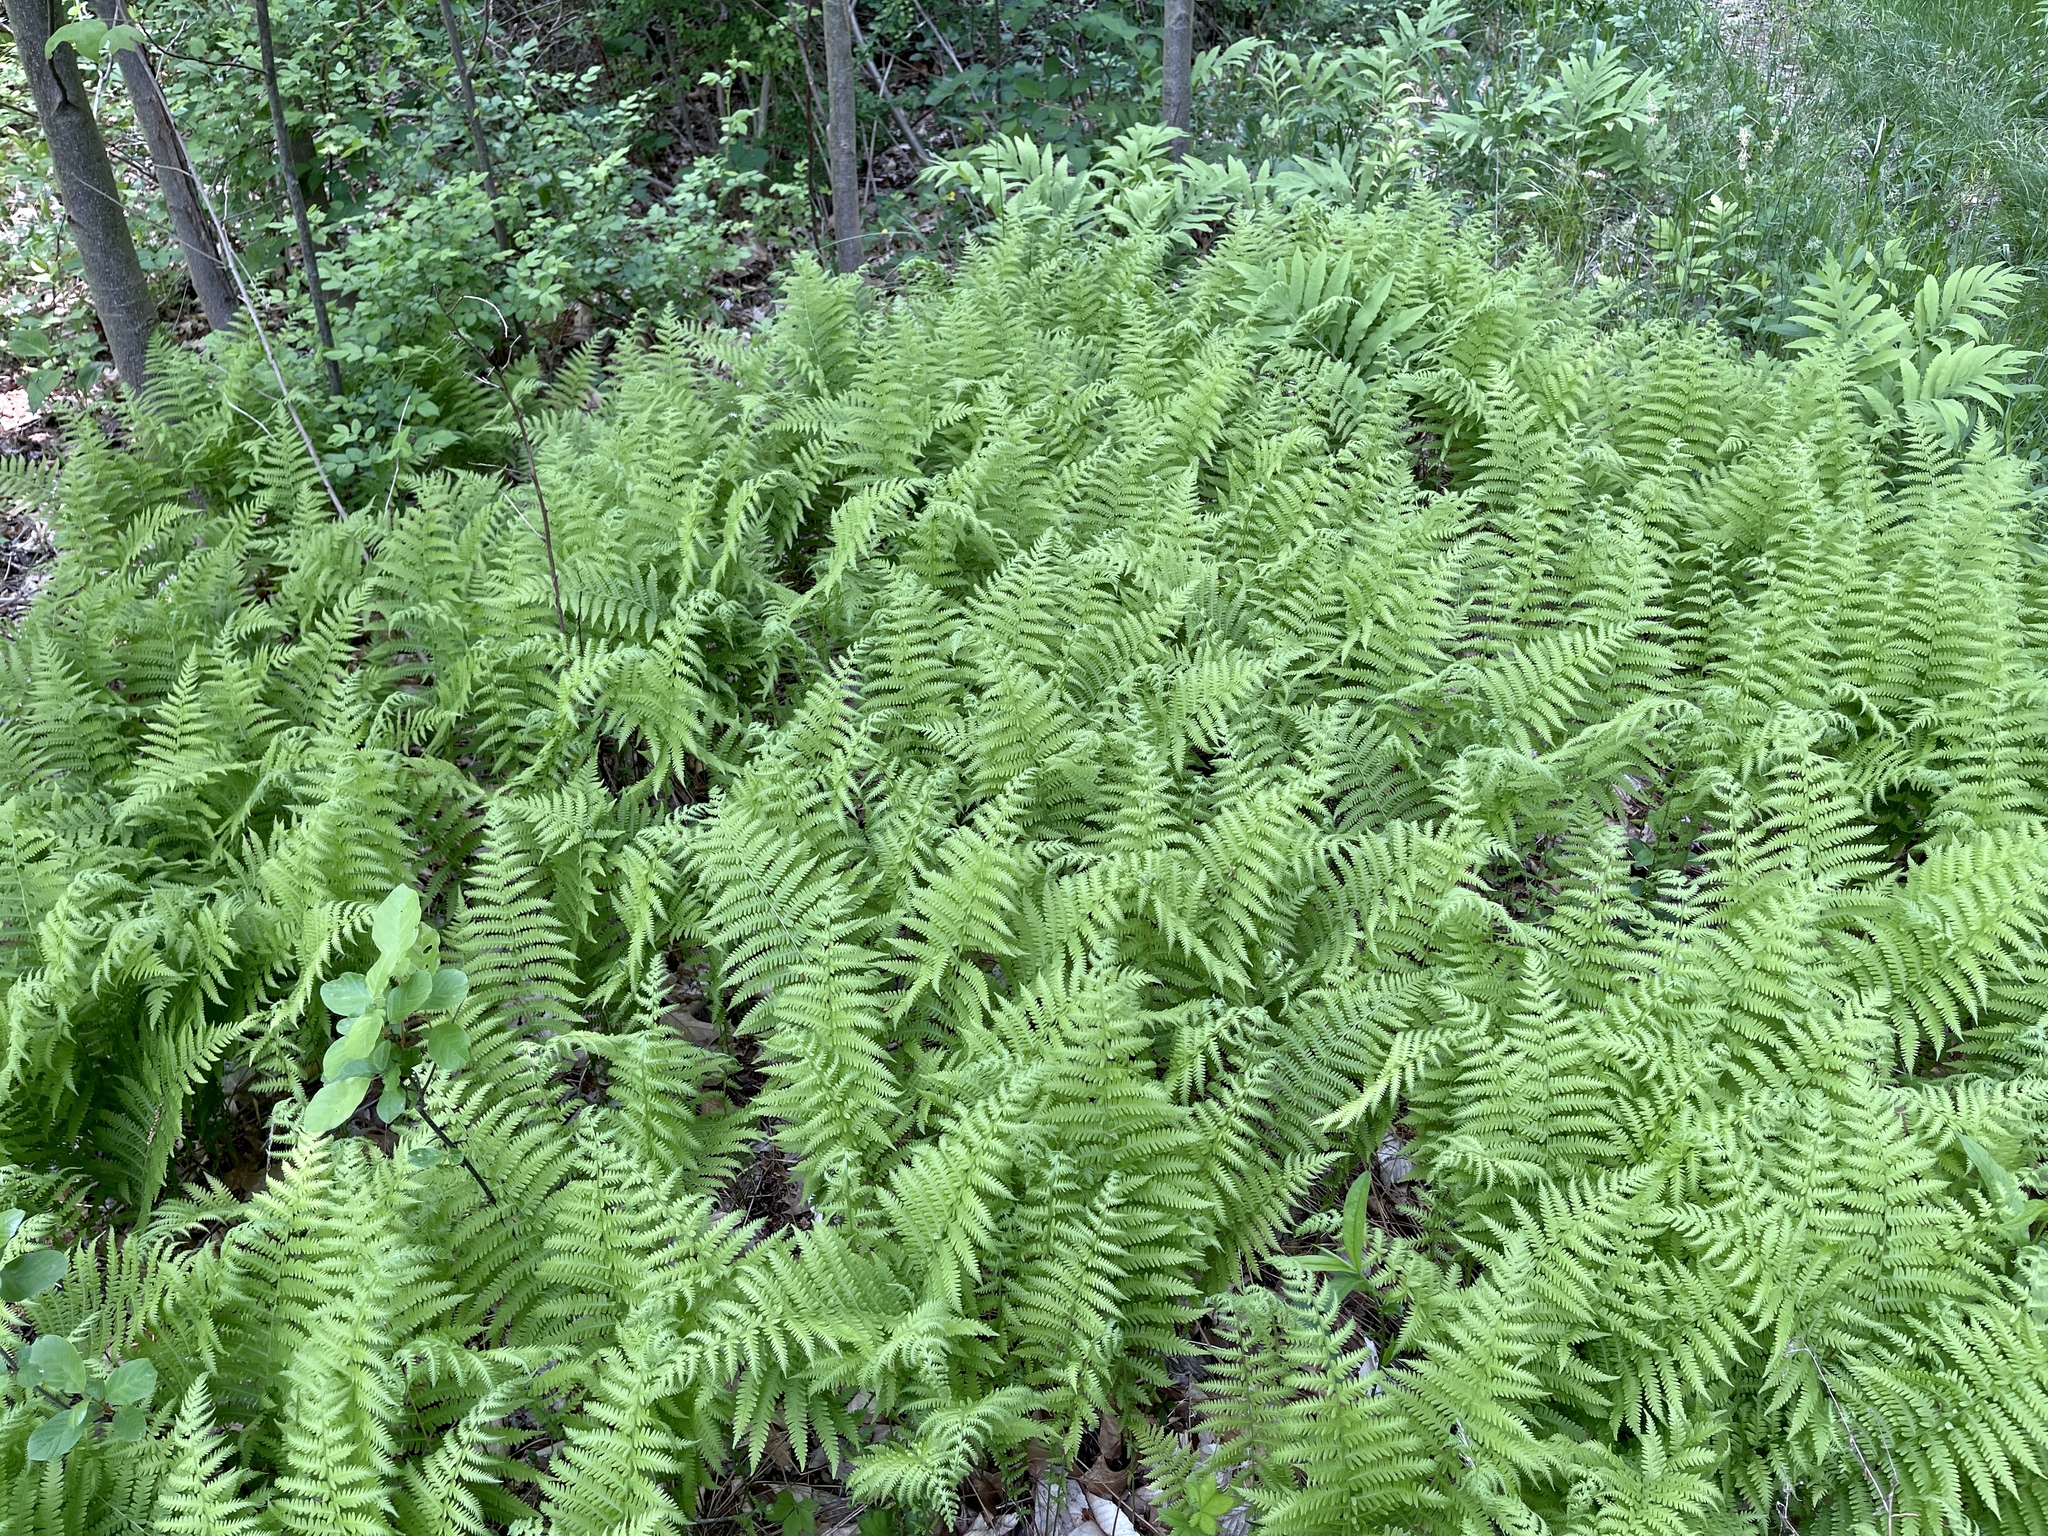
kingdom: Plantae
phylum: Tracheophyta
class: Polypodiopsida
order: Polypodiales
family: Dennstaedtiaceae
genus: Sitobolium
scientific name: Sitobolium punctilobum
